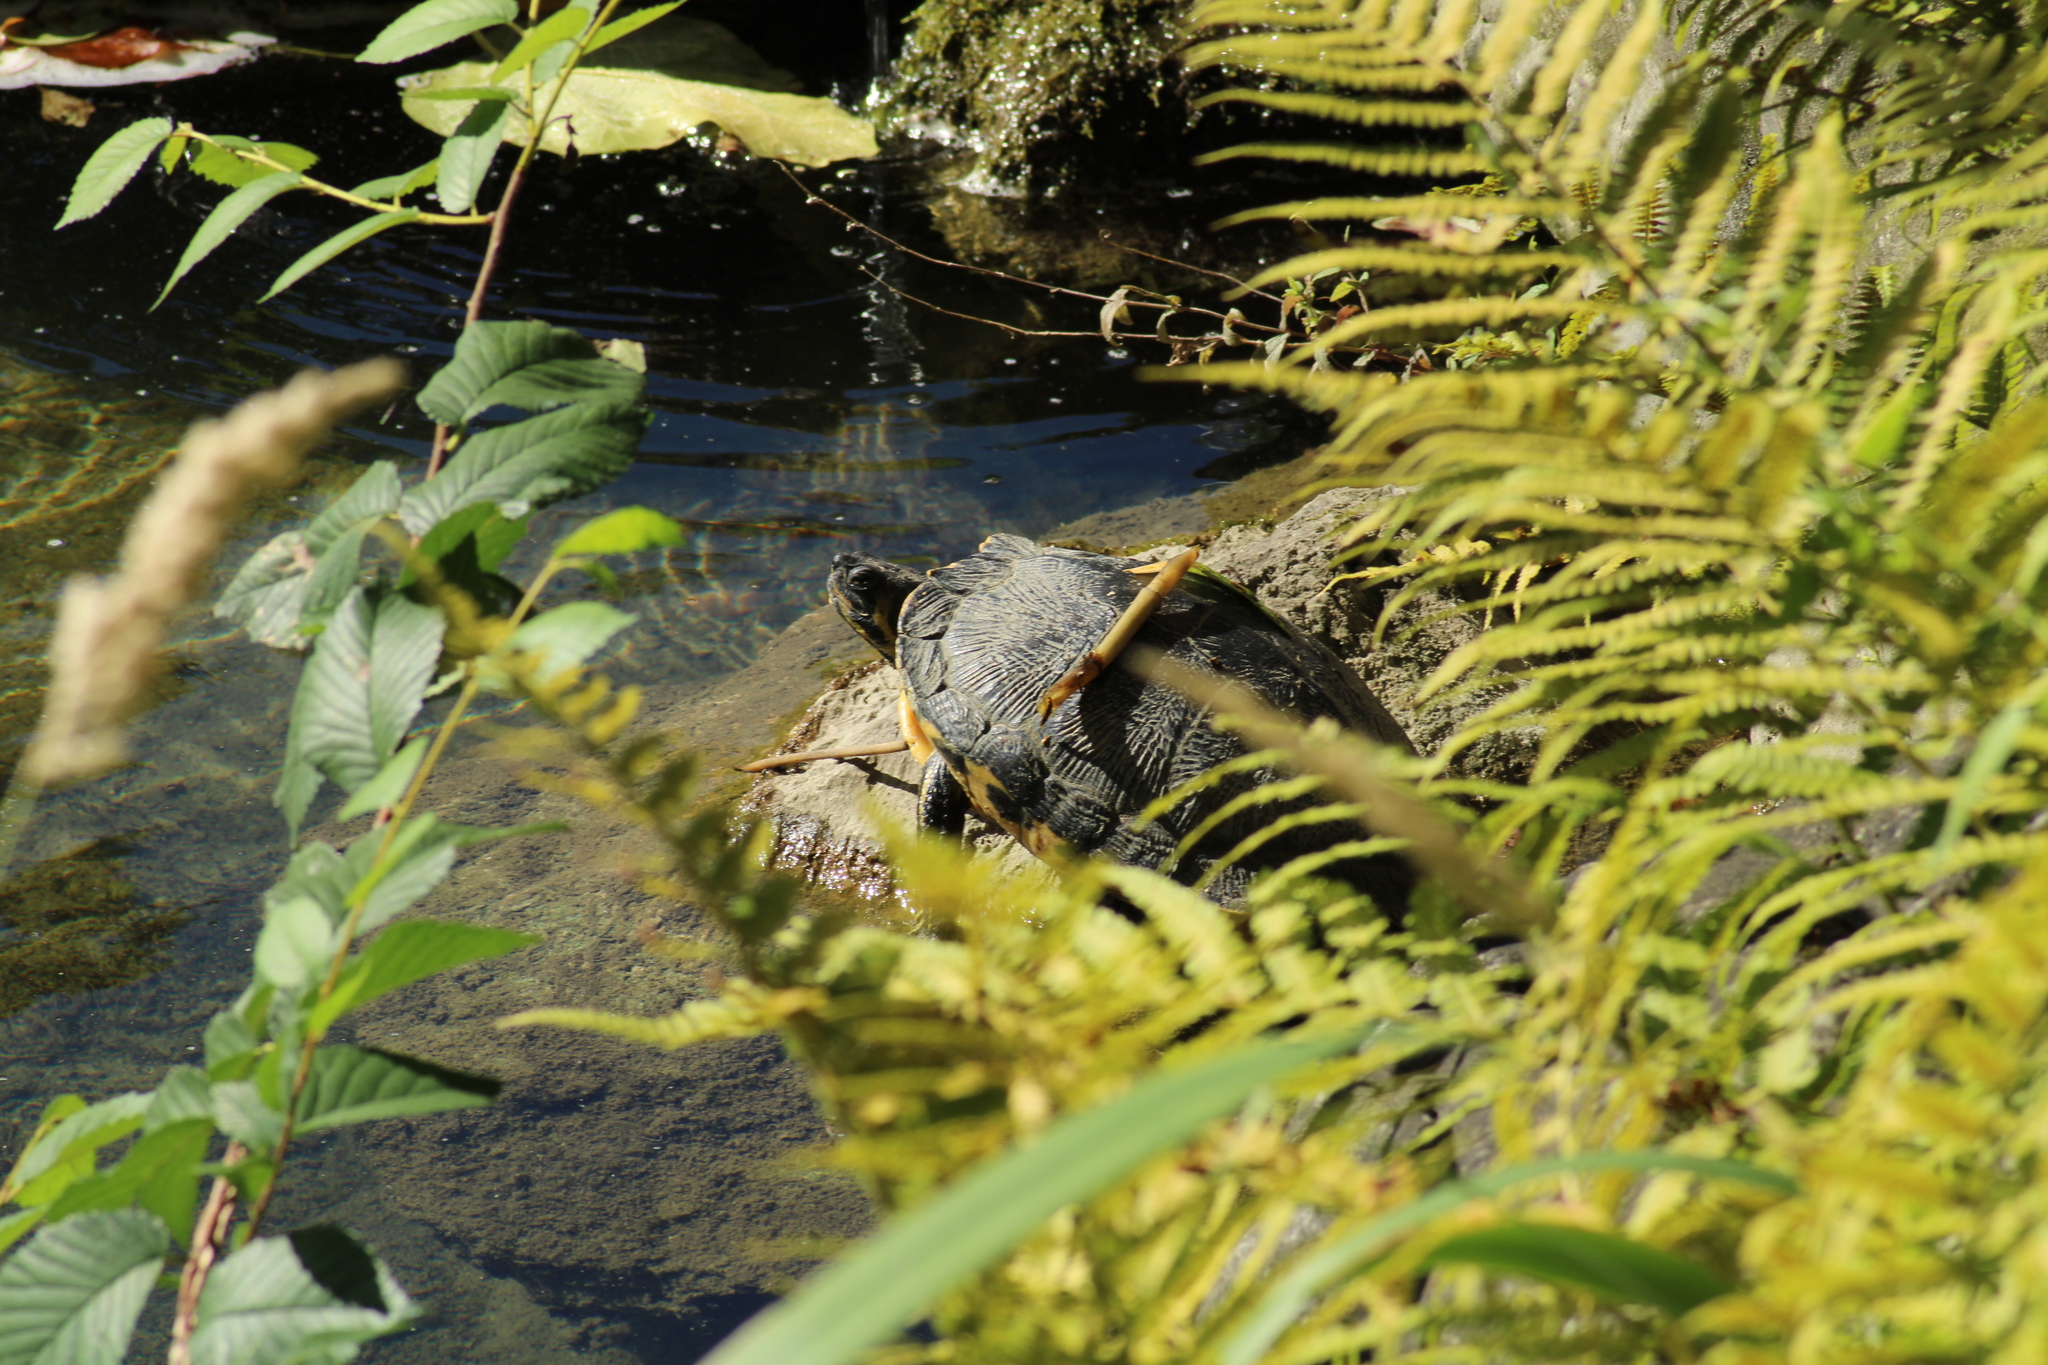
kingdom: Animalia
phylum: Chordata
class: Testudines
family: Emydidae
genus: Trachemys
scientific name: Trachemys scripta
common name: Slider
